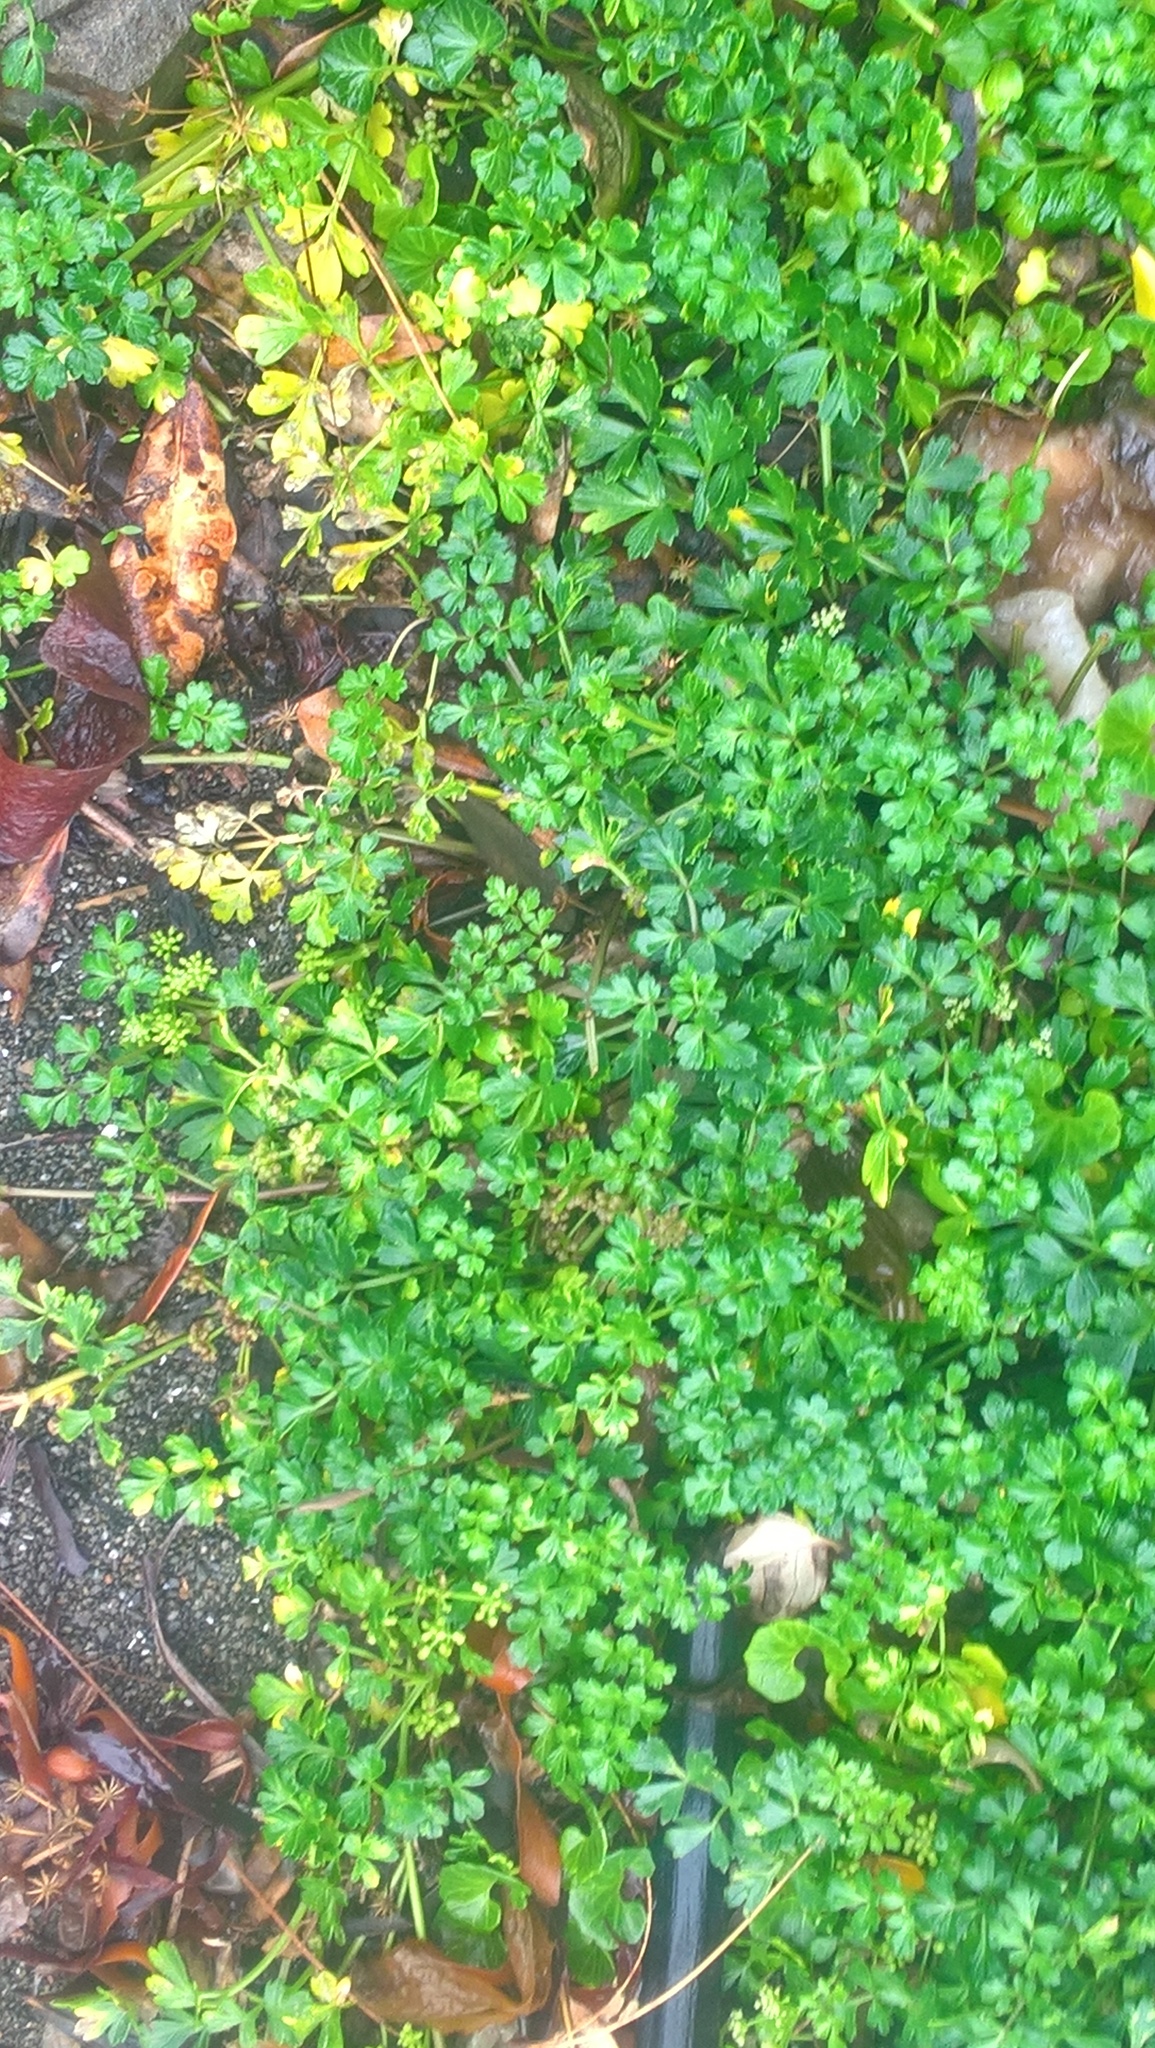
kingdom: Plantae
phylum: Tracheophyta
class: Magnoliopsida
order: Apiales
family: Apiaceae
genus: Apium
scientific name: Apium prostratum
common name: Prostrate marshwort
